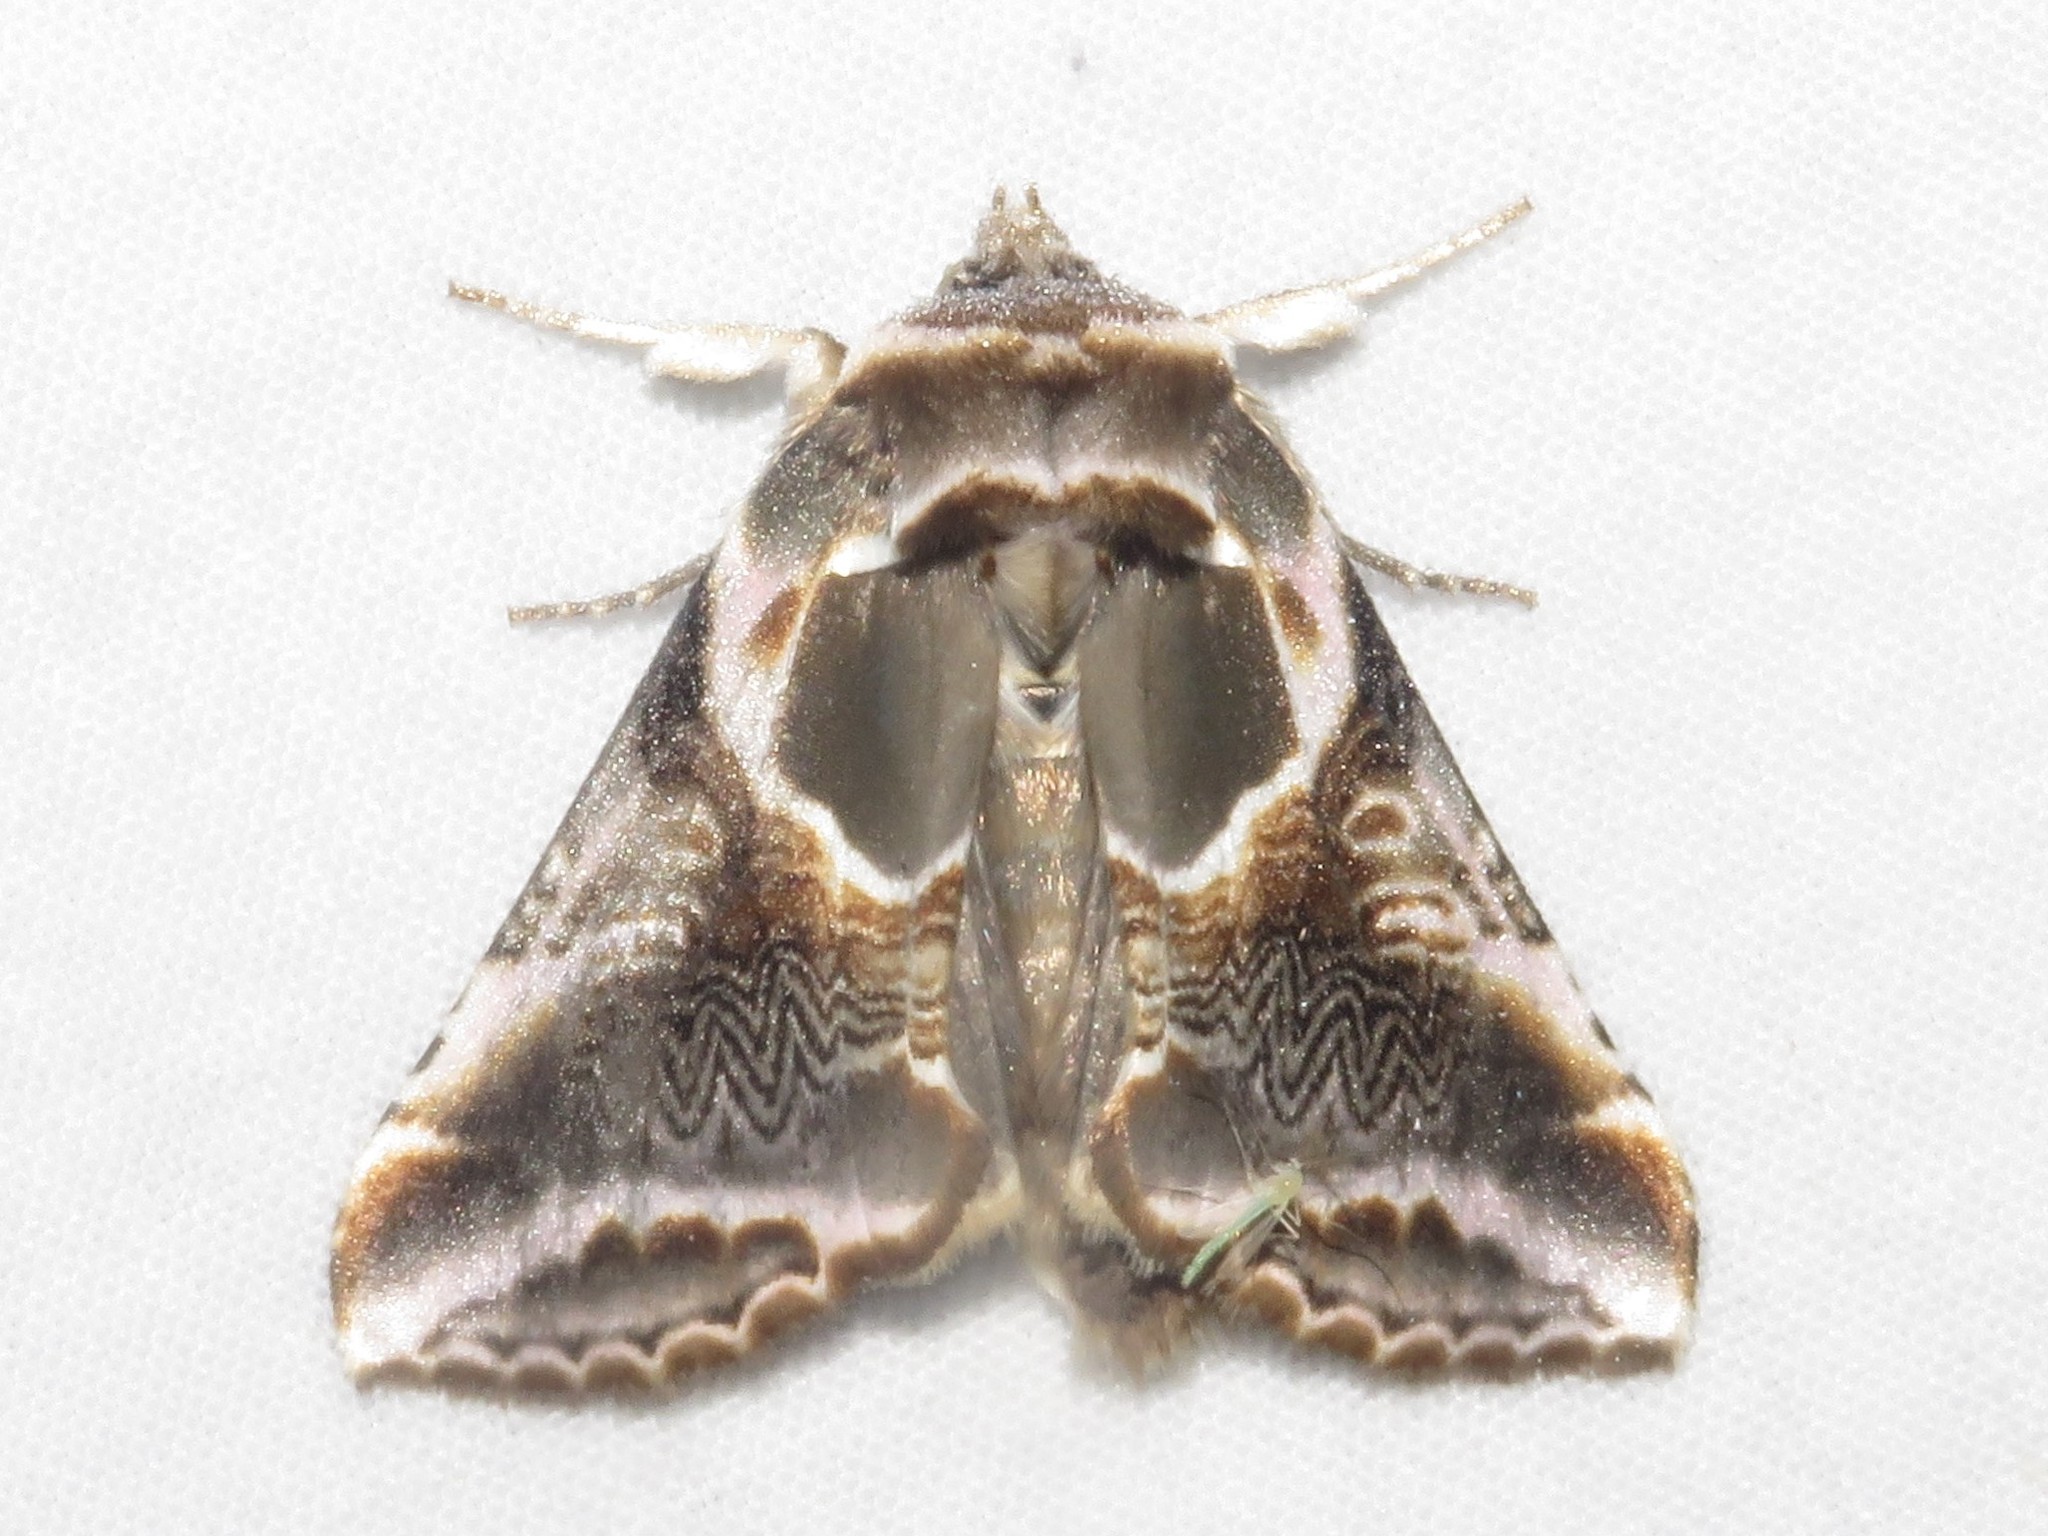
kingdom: Animalia
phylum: Arthropoda
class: Insecta
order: Lepidoptera
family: Drepanidae
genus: Habrosyne
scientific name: Habrosyne scripta
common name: Lettered habrosyne moth
